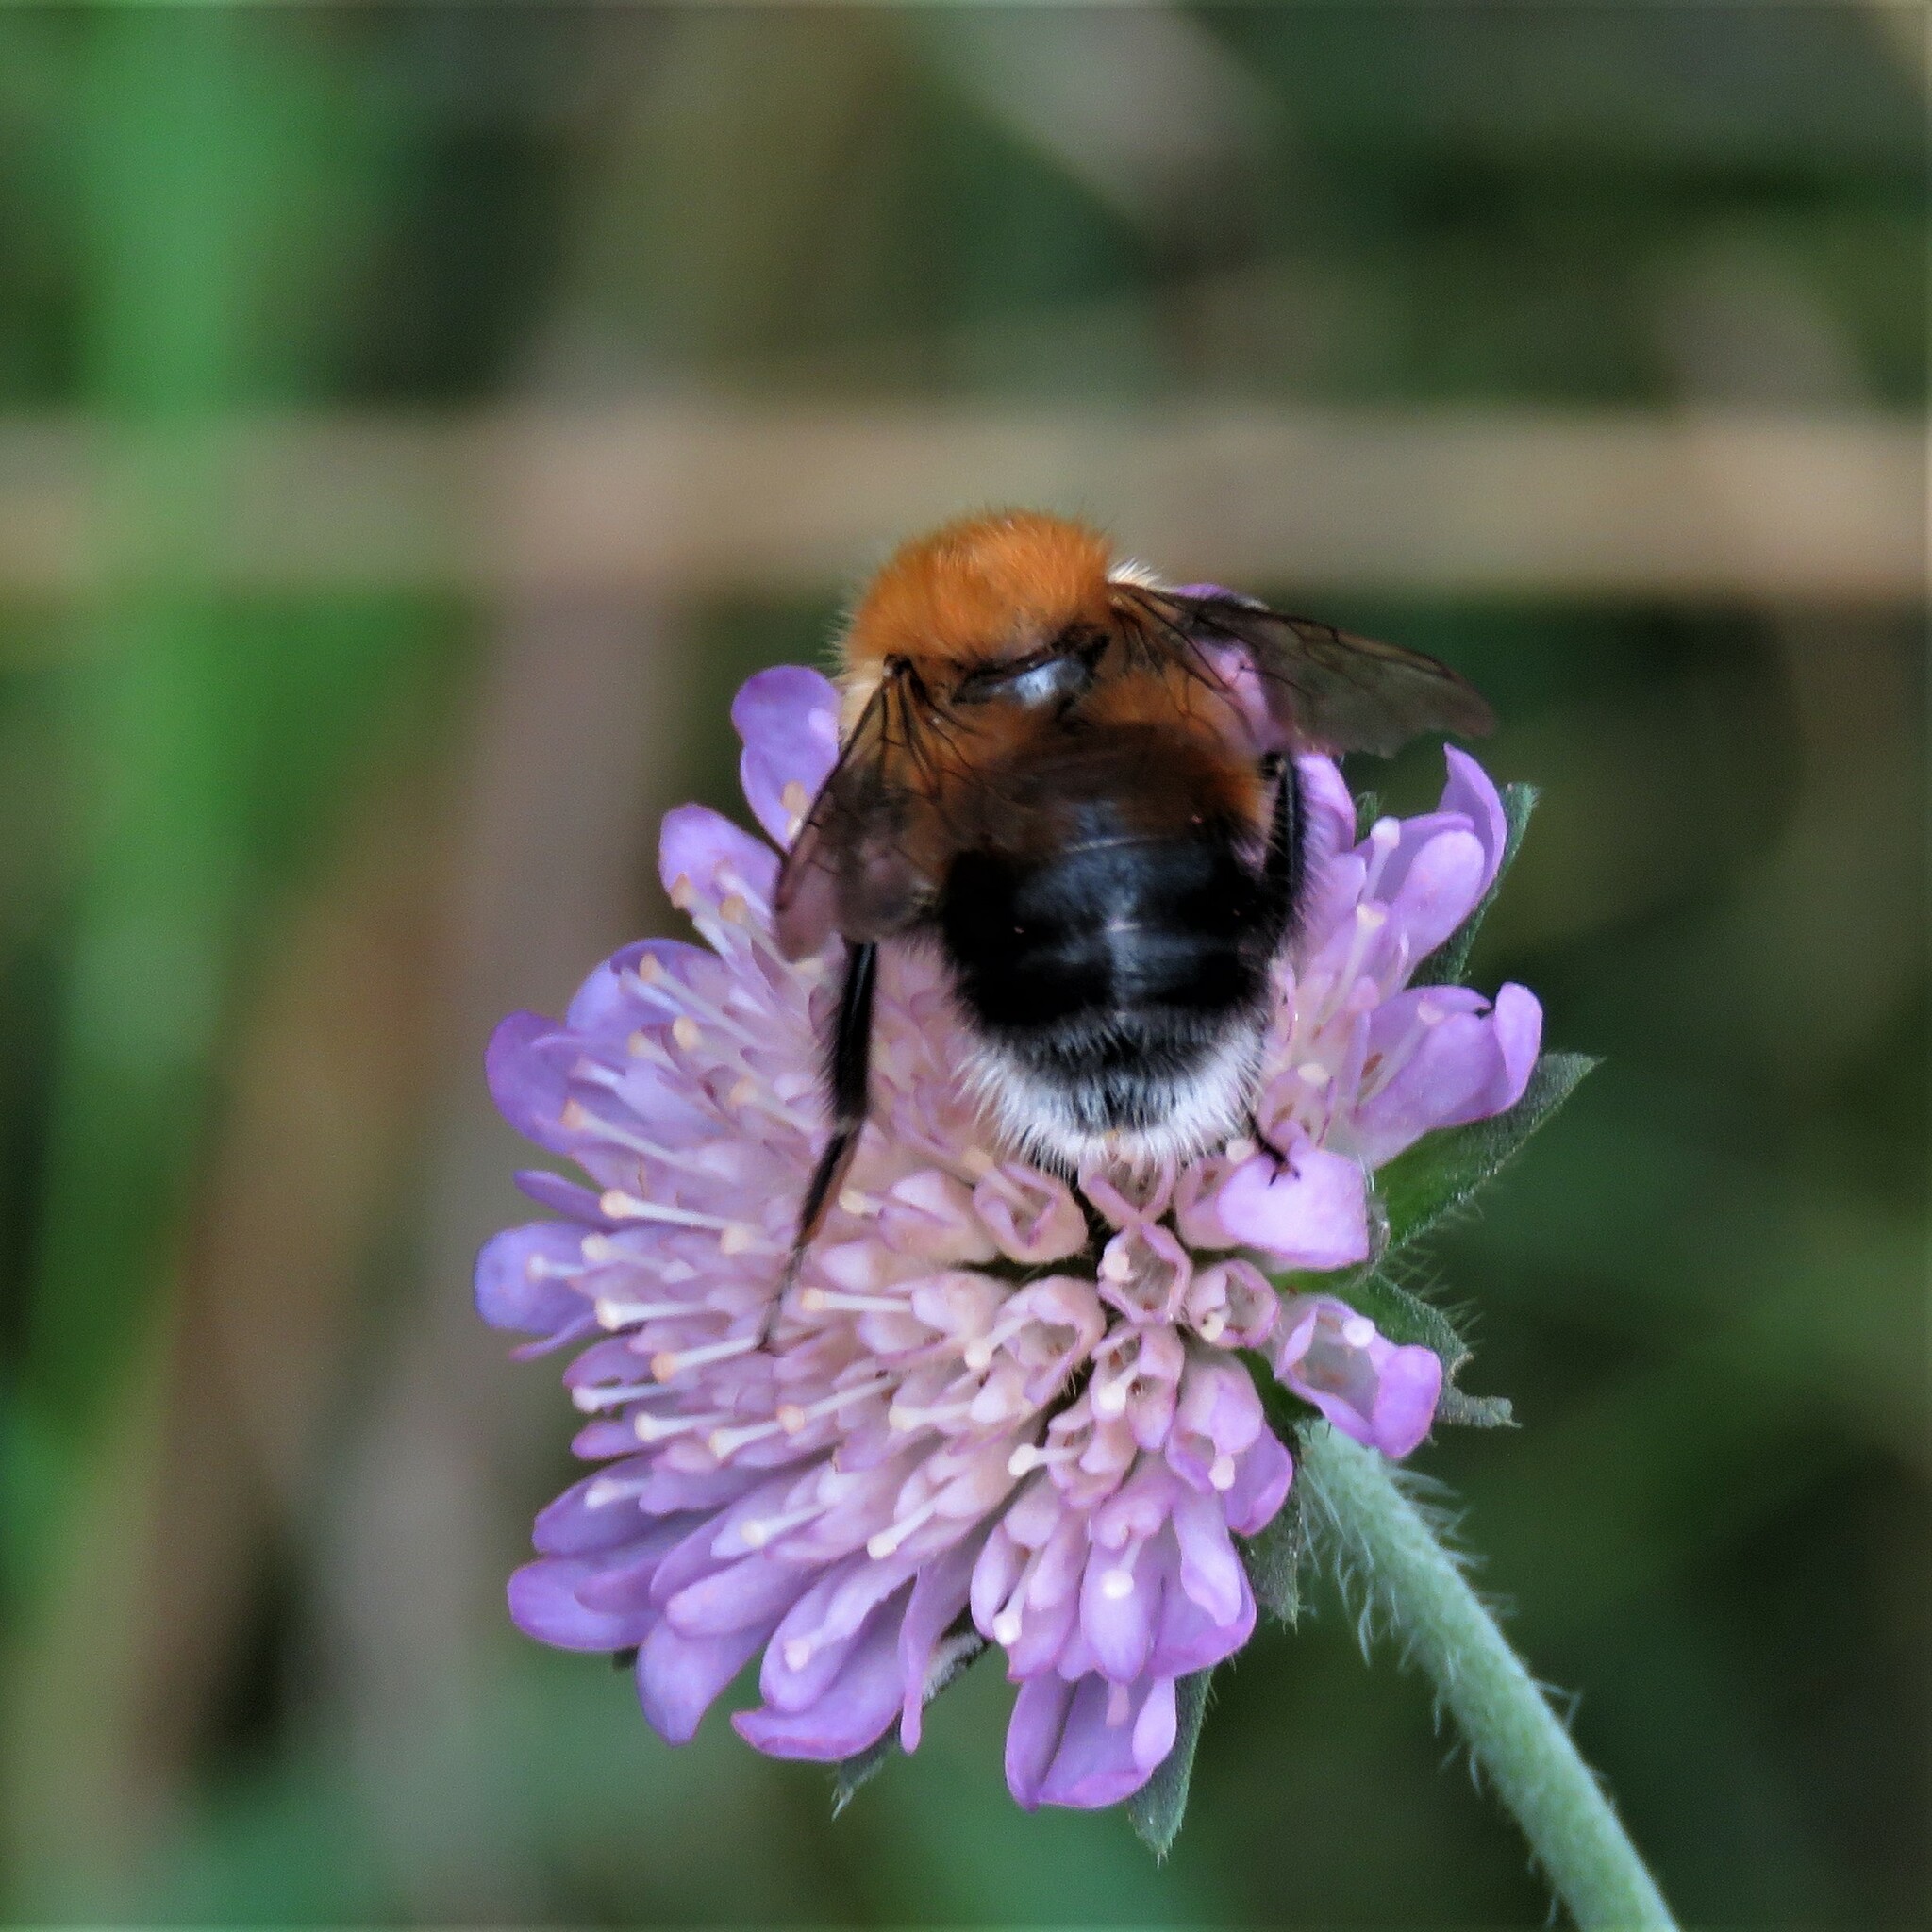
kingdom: Animalia
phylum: Arthropoda
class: Insecta
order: Hymenoptera
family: Apidae
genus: Bombus
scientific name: Bombus hypnorum
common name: New garden bumblebee
